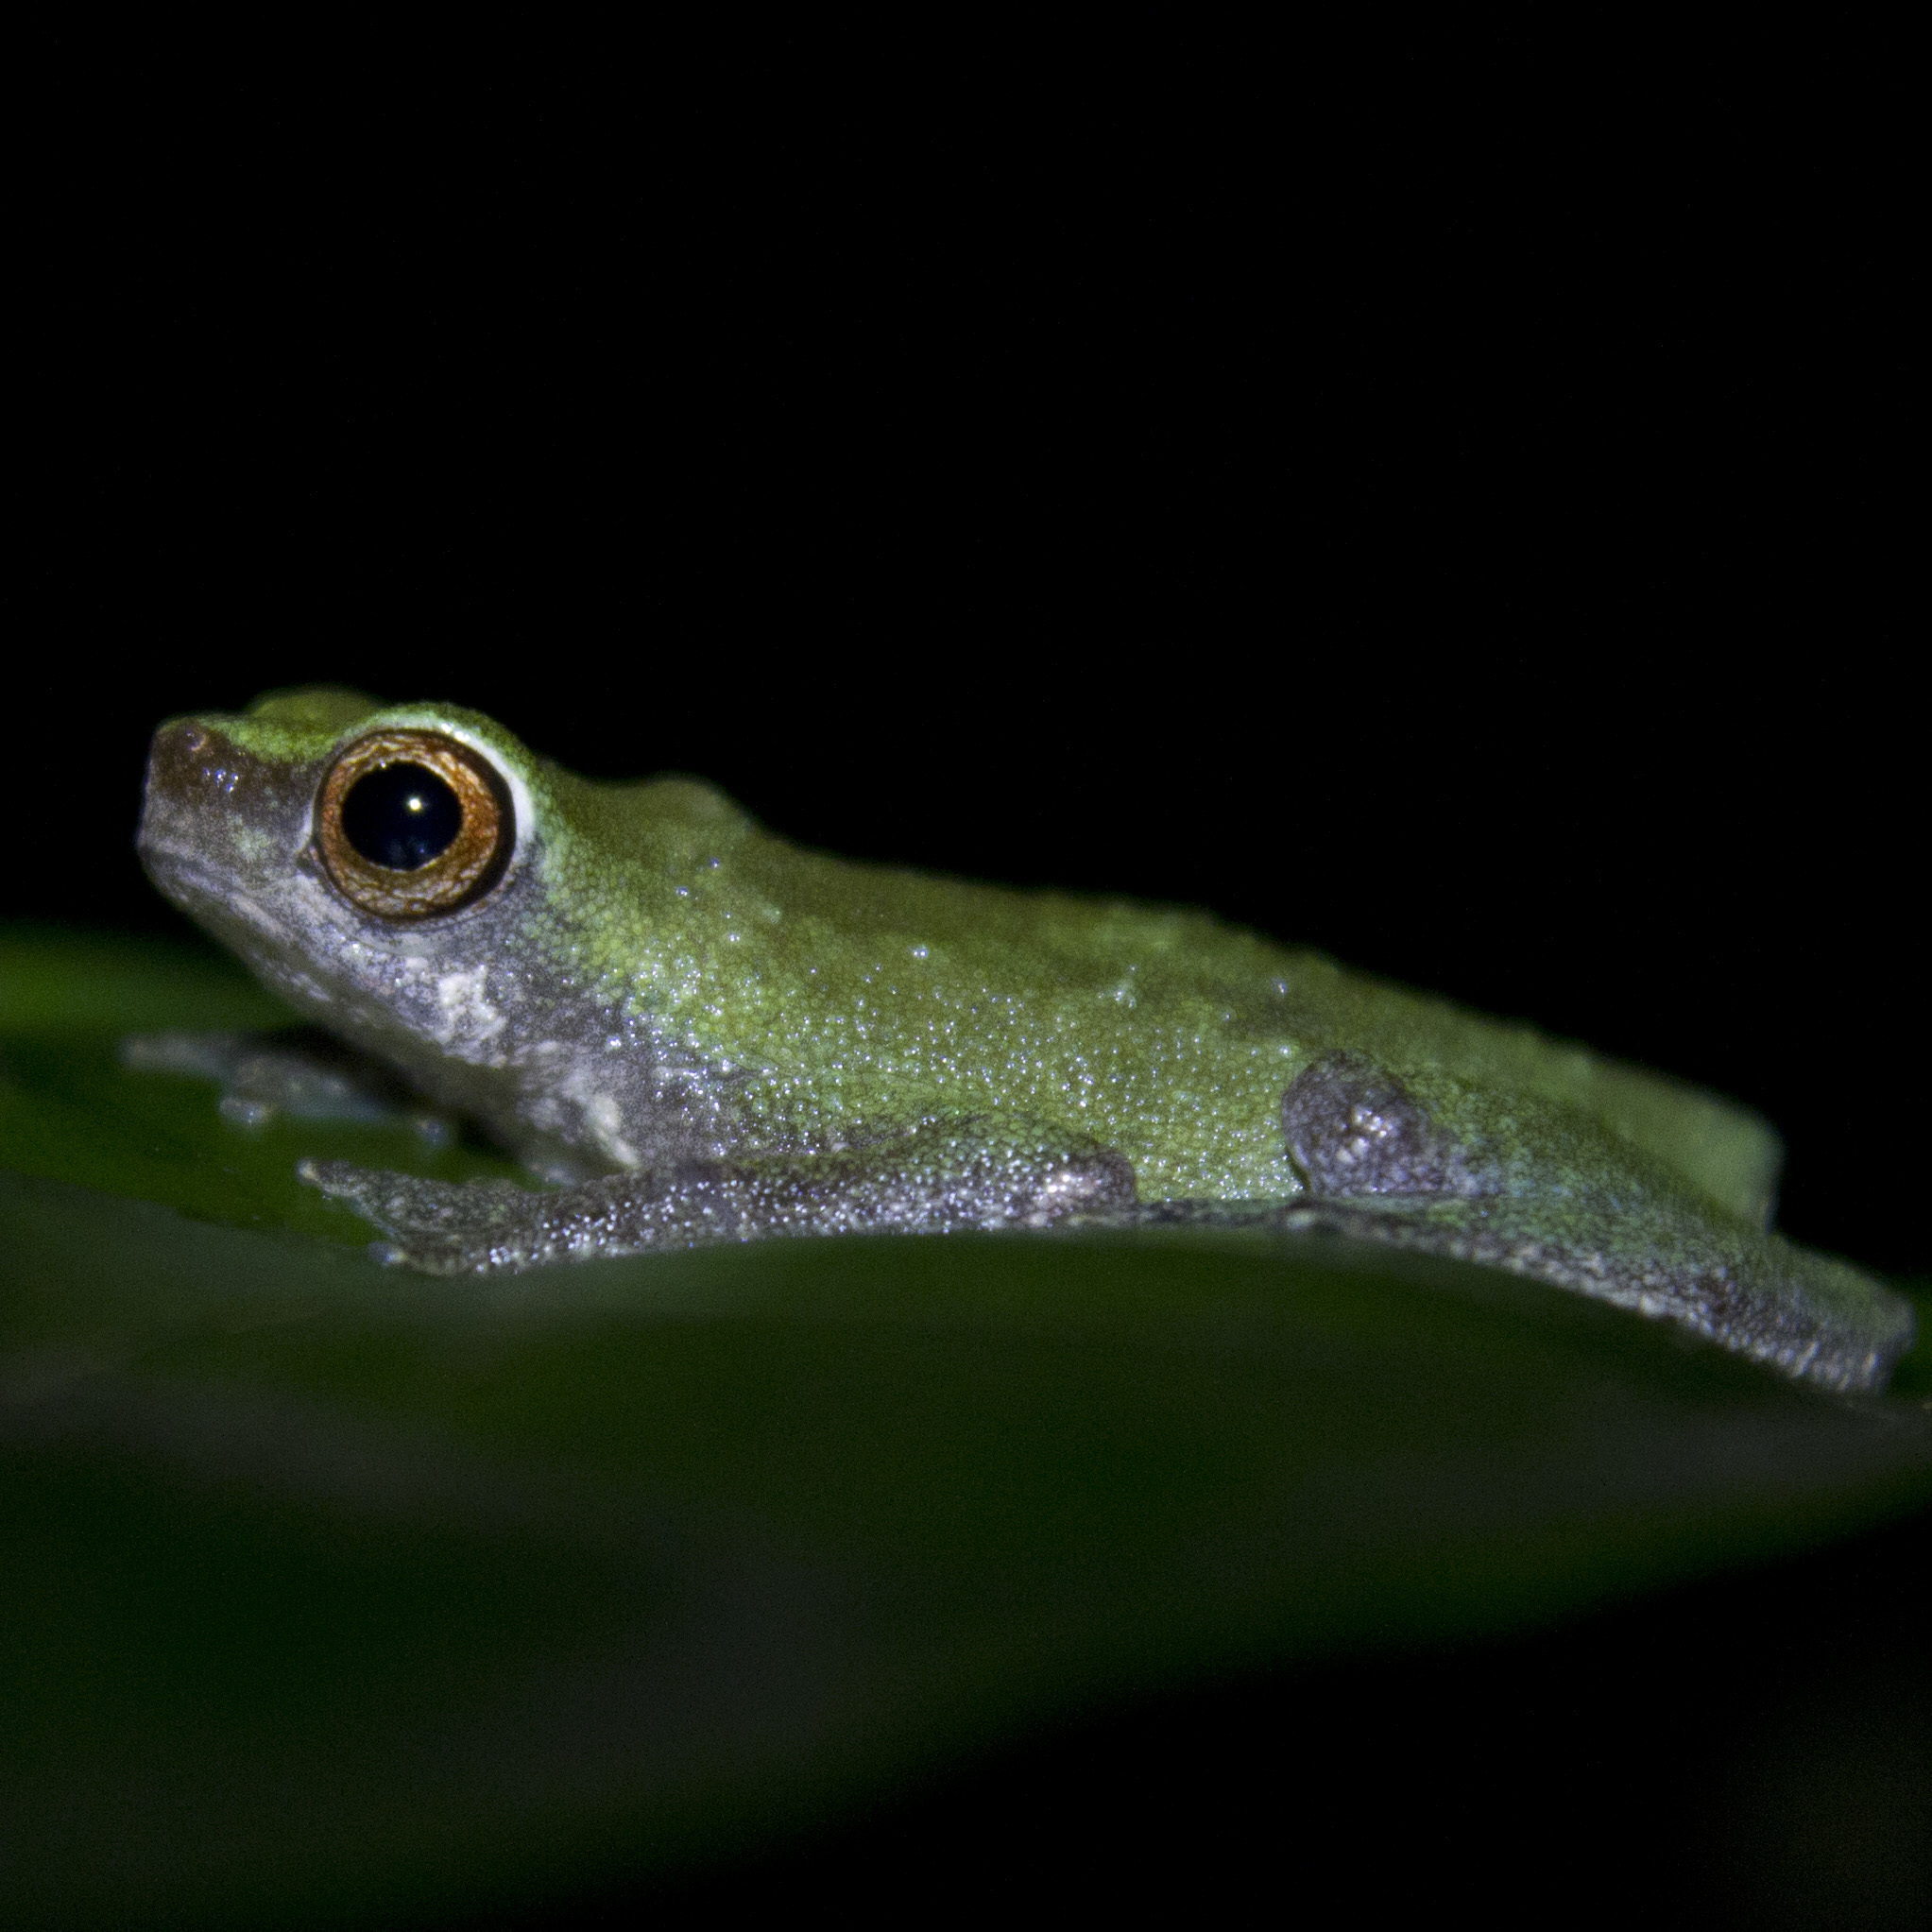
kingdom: Animalia
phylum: Chordata
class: Amphibia
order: Anura
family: Bufonidae
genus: Nectophryne
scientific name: Nectophryne batesii
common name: Bates' tree toad
